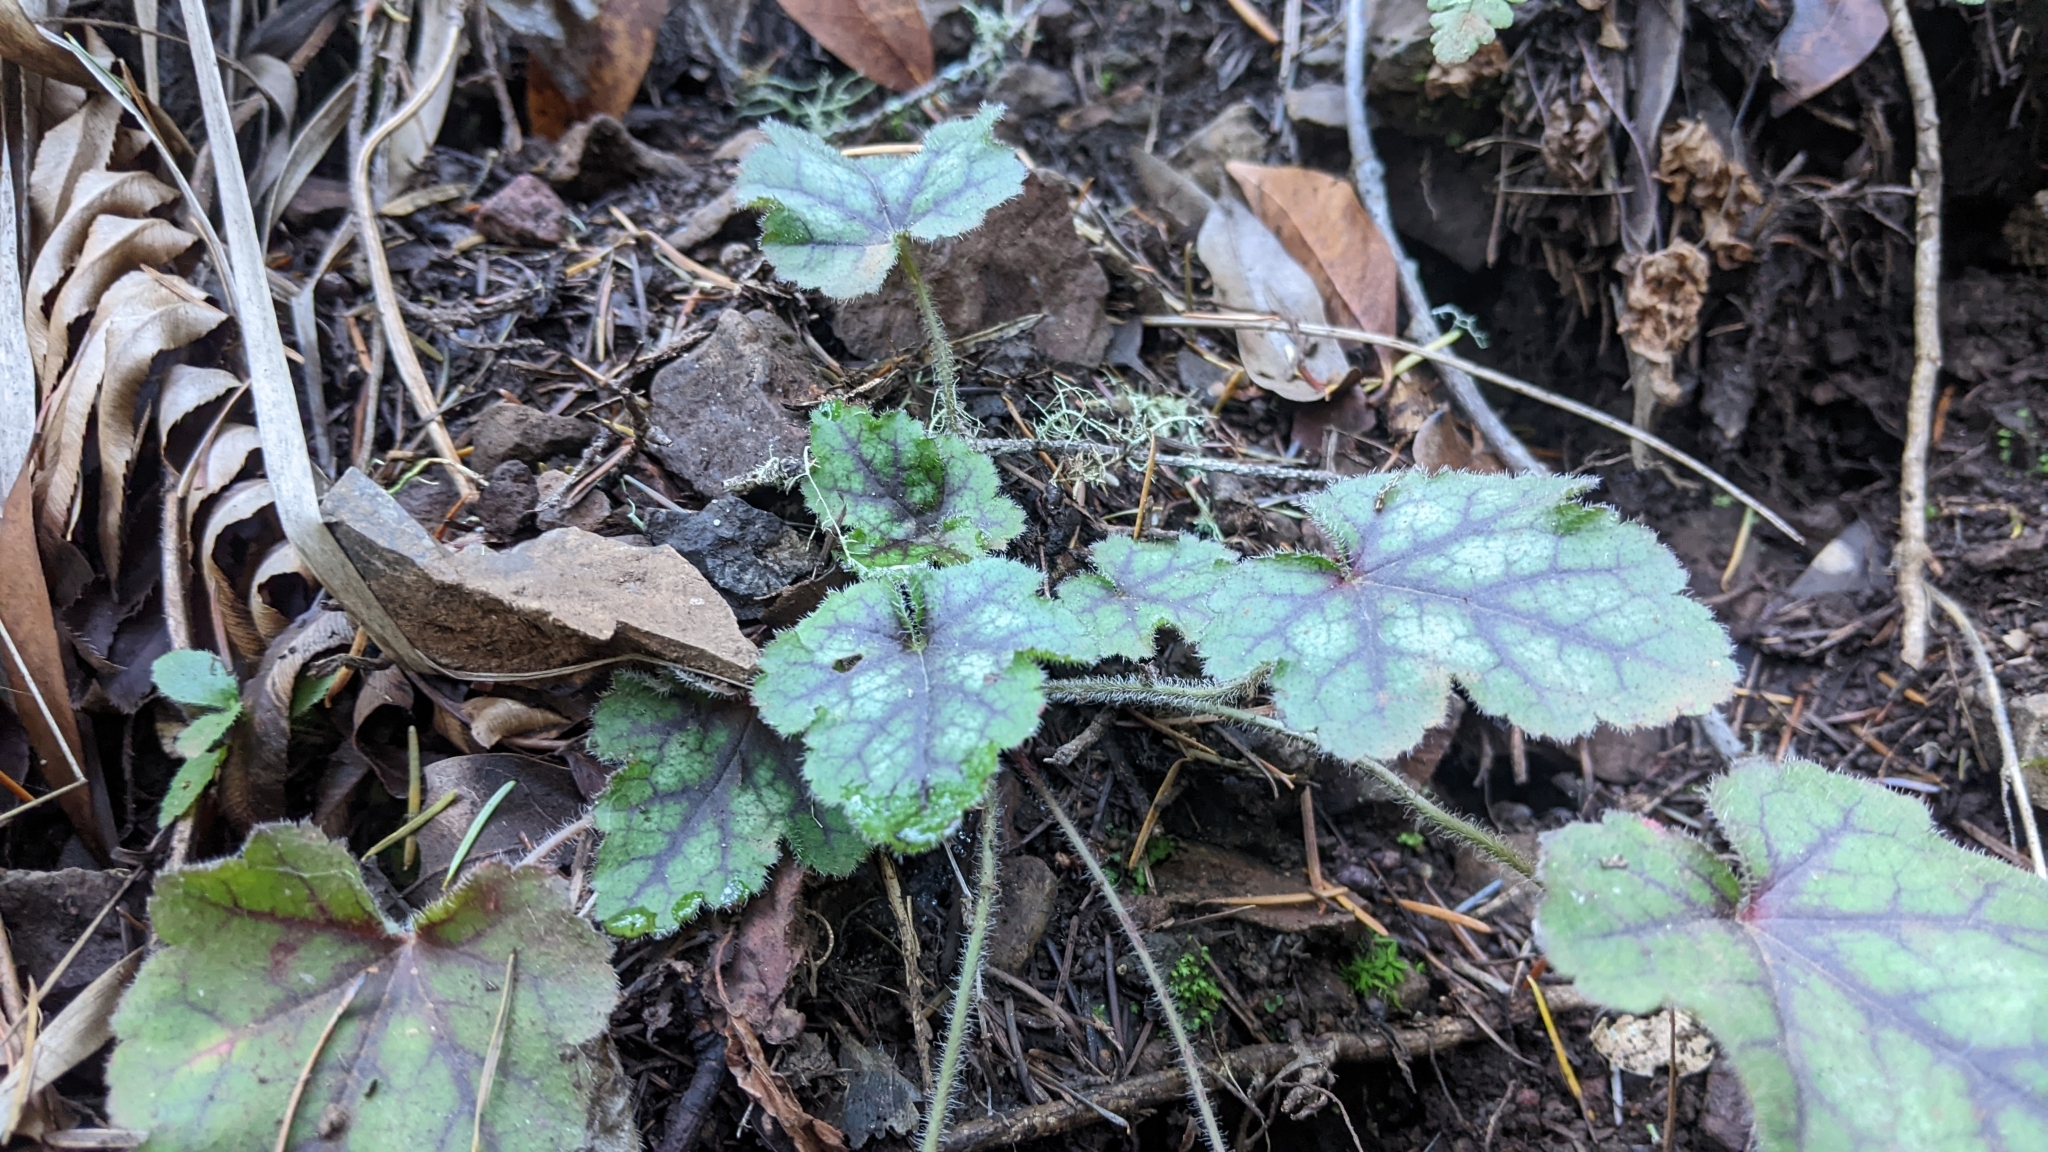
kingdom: Plantae
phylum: Tracheophyta
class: Magnoliopsida
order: Saxifragales
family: Saxifragaceae
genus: Heuchera
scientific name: Heuchera micrantha
